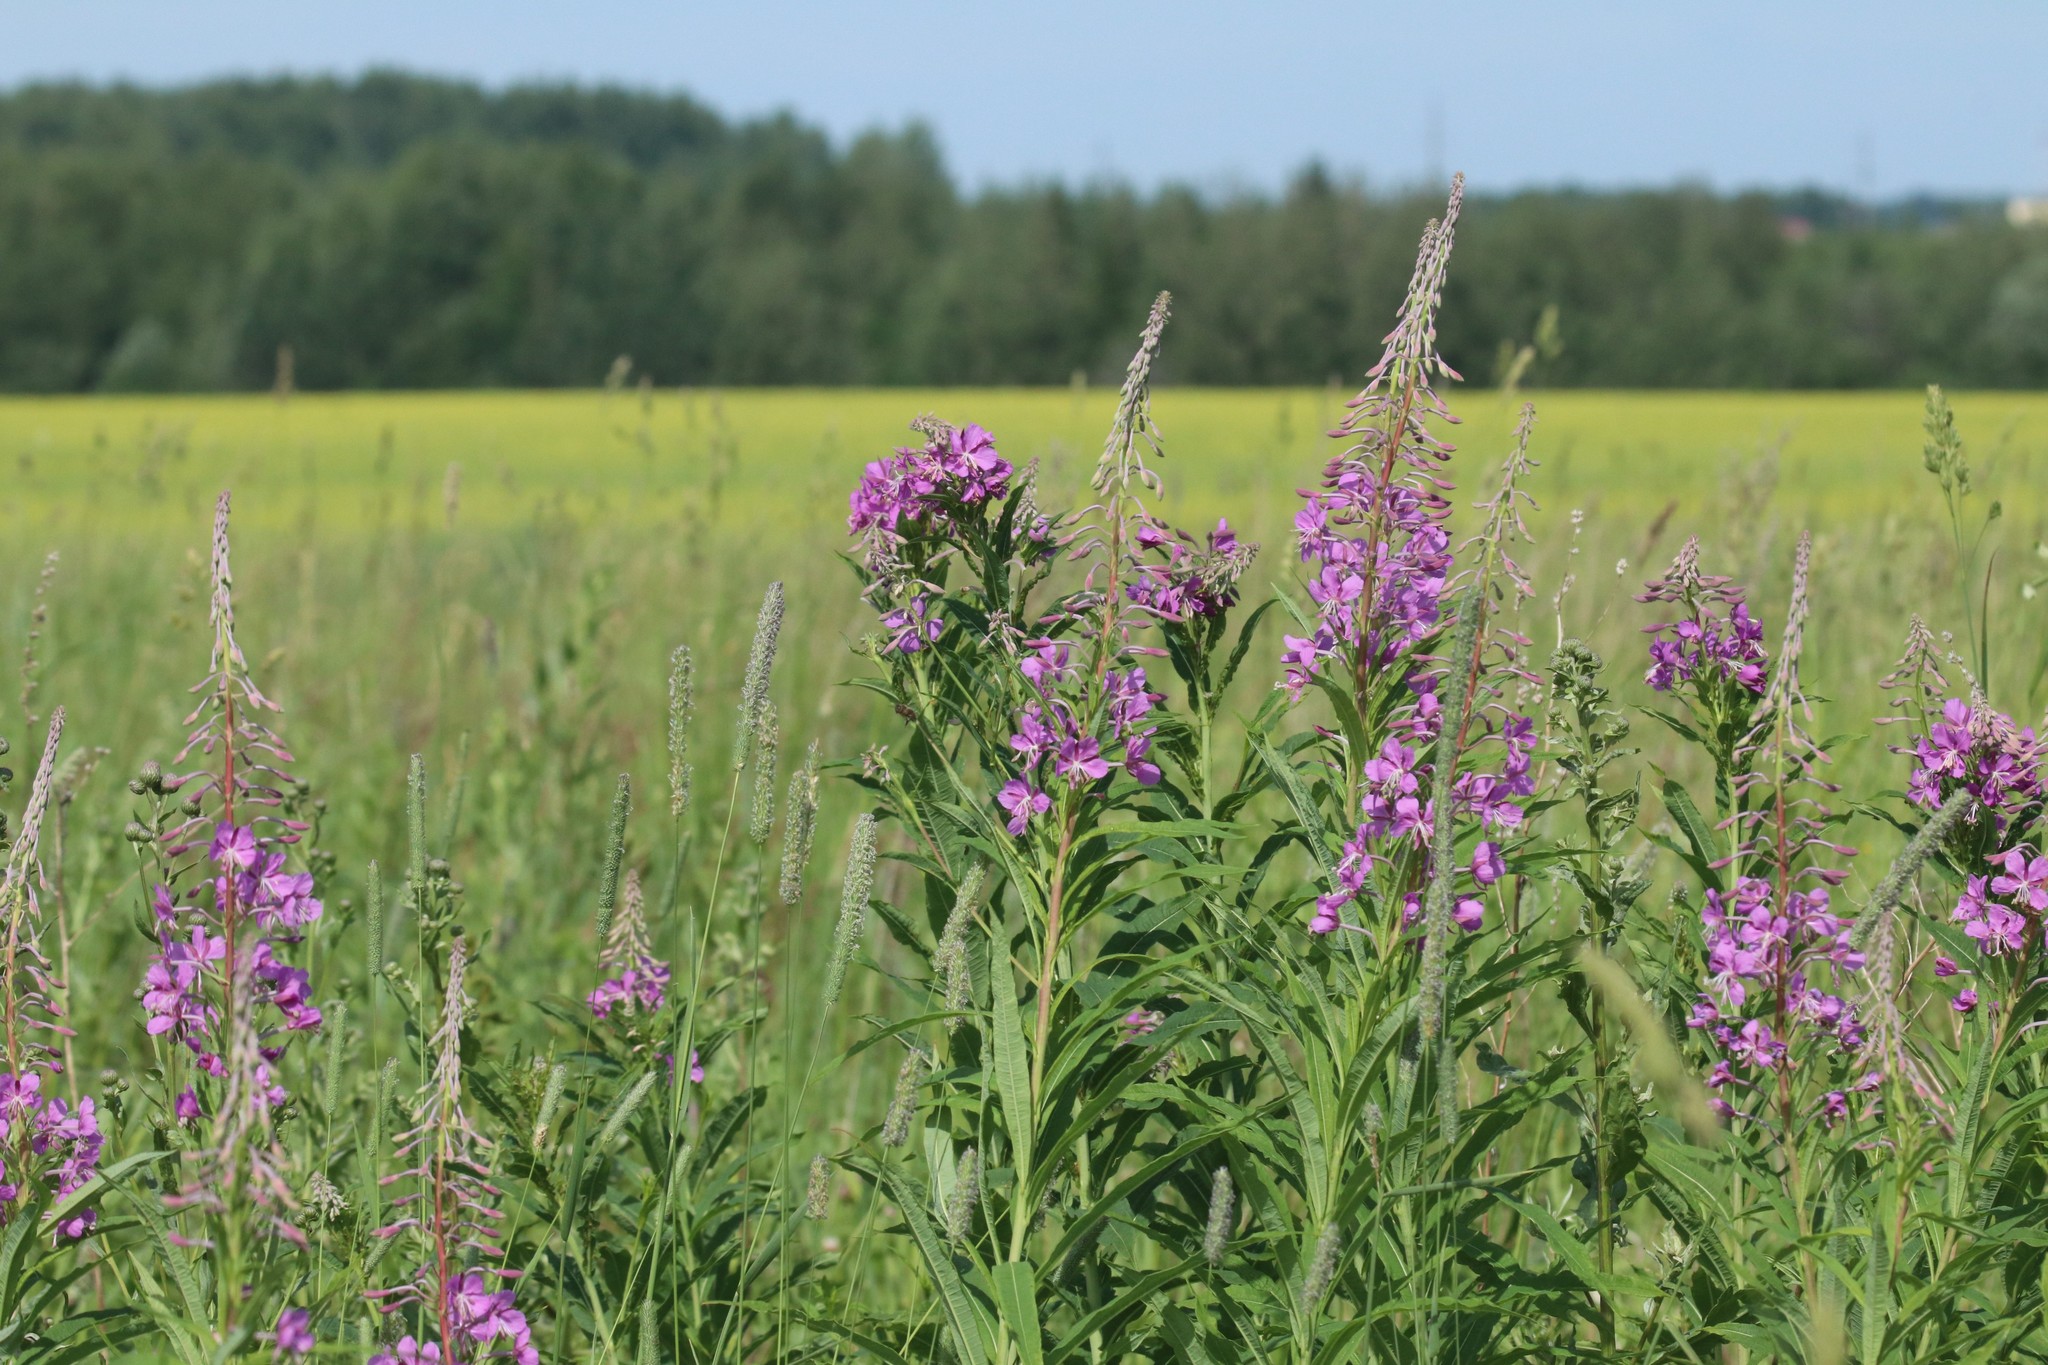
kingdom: Plantae
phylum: Tracheophyta
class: Magnoliopsida
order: Myrtales
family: Onagraceae
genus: Chamaenerion
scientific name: Chamaenerion angustifolium
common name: Fireweed
